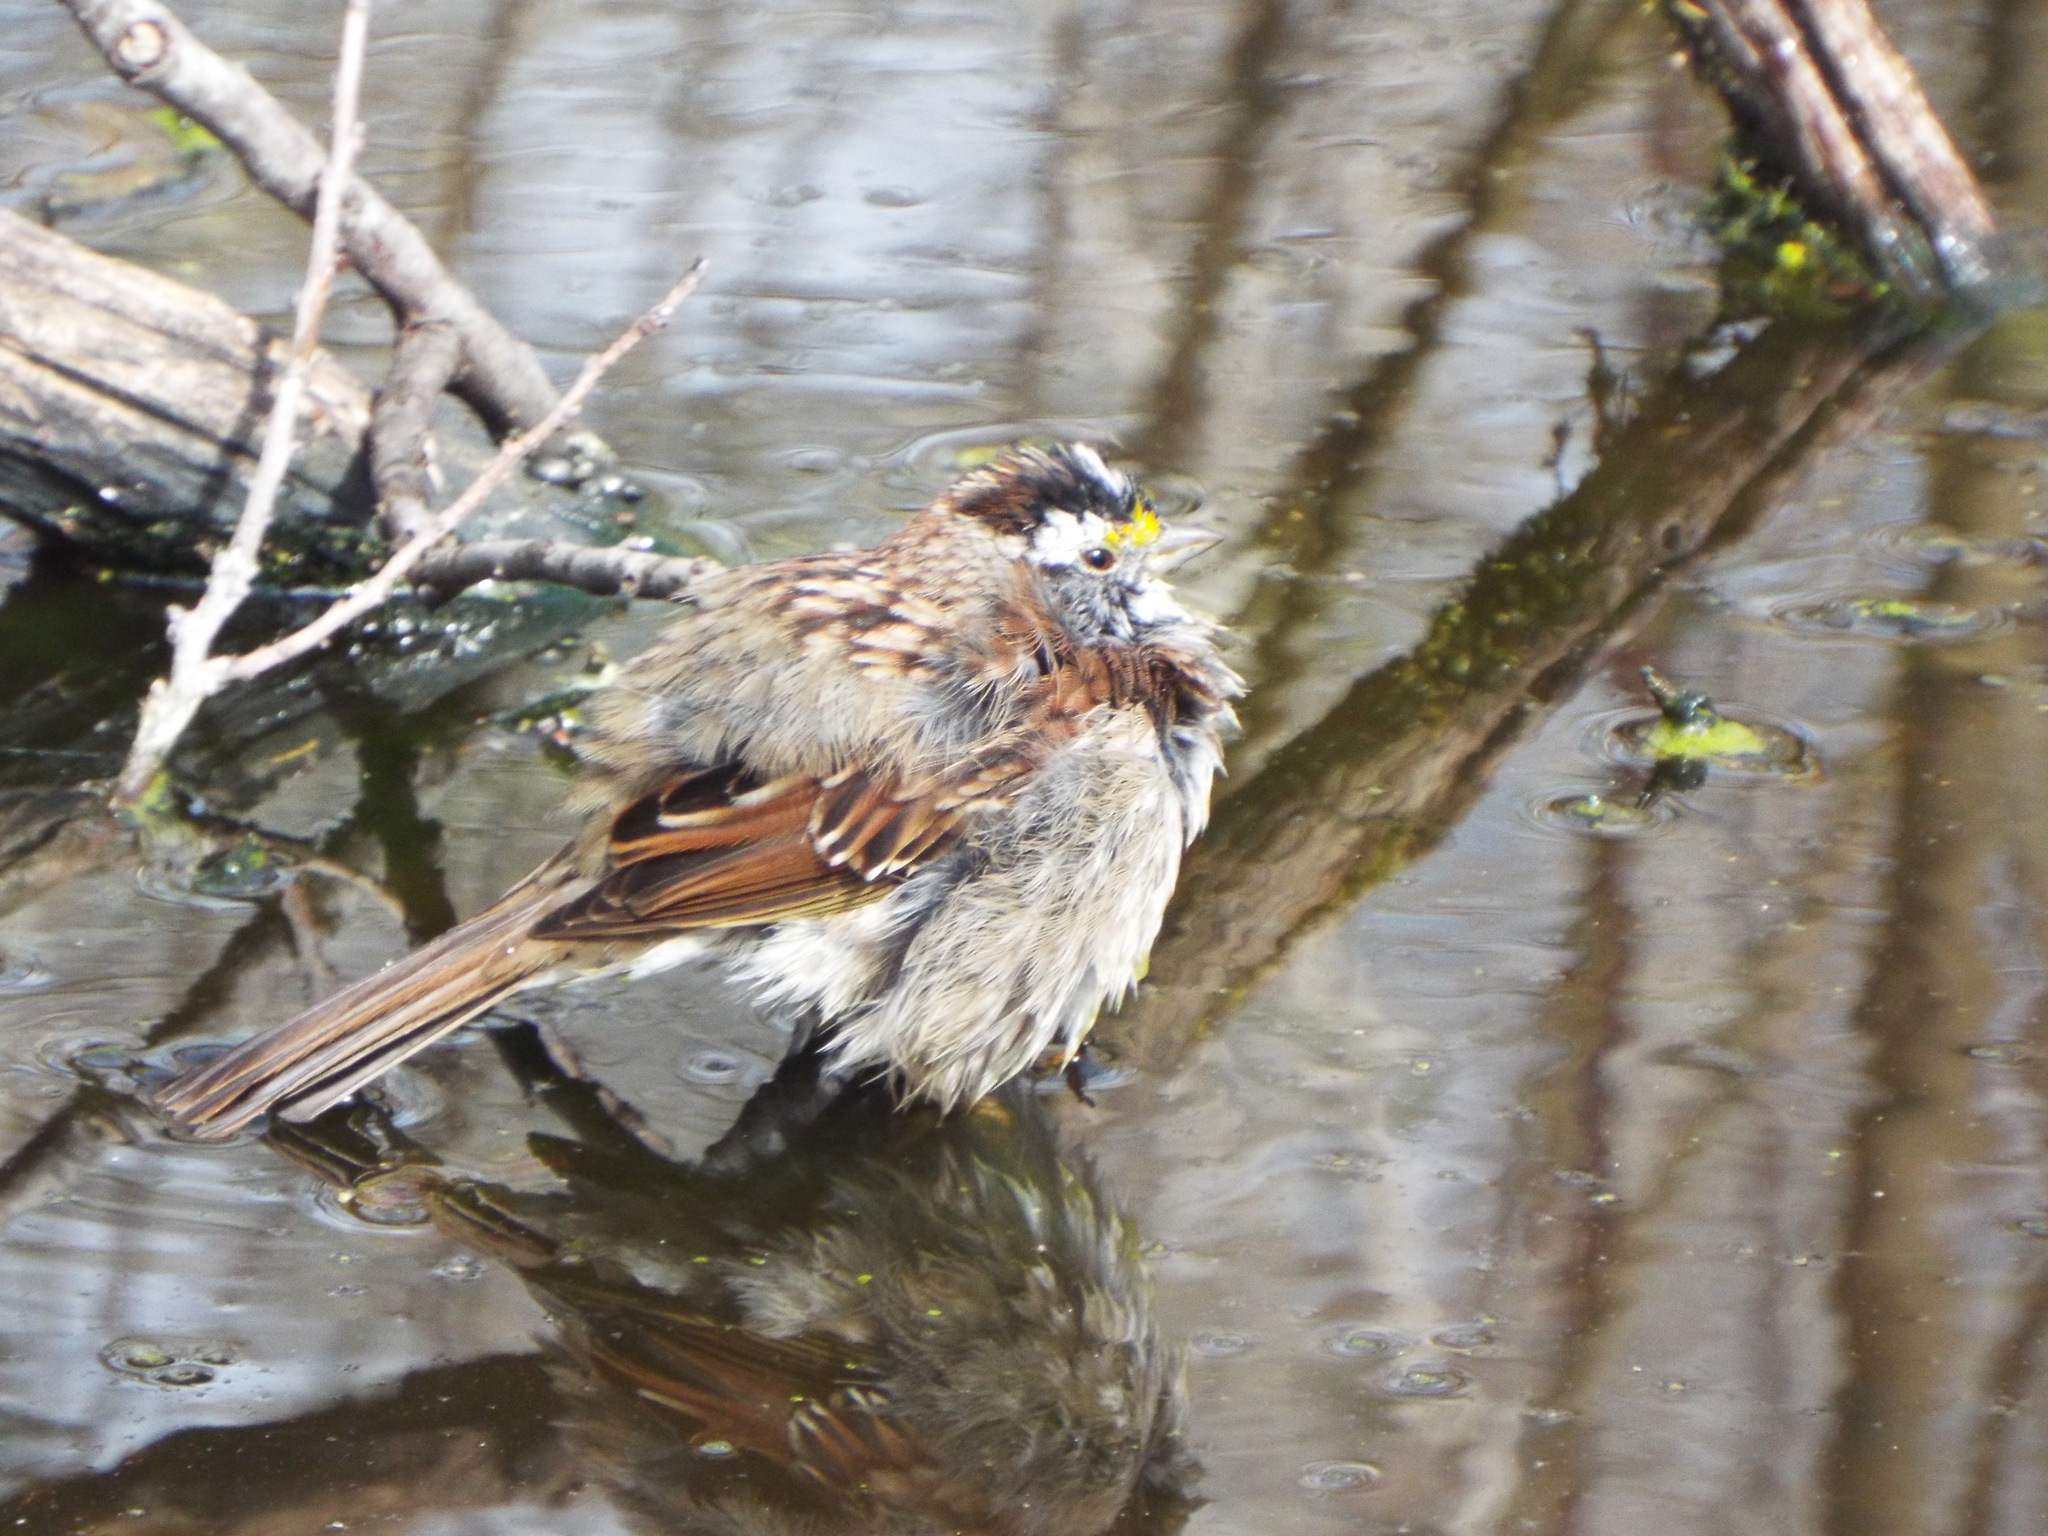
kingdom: Animalia
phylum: Chordata
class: Aves
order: Passeriformes
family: Passerellidae
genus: Zonotrichia
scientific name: Zonotrichia albicollis
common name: White-throated sparrow
